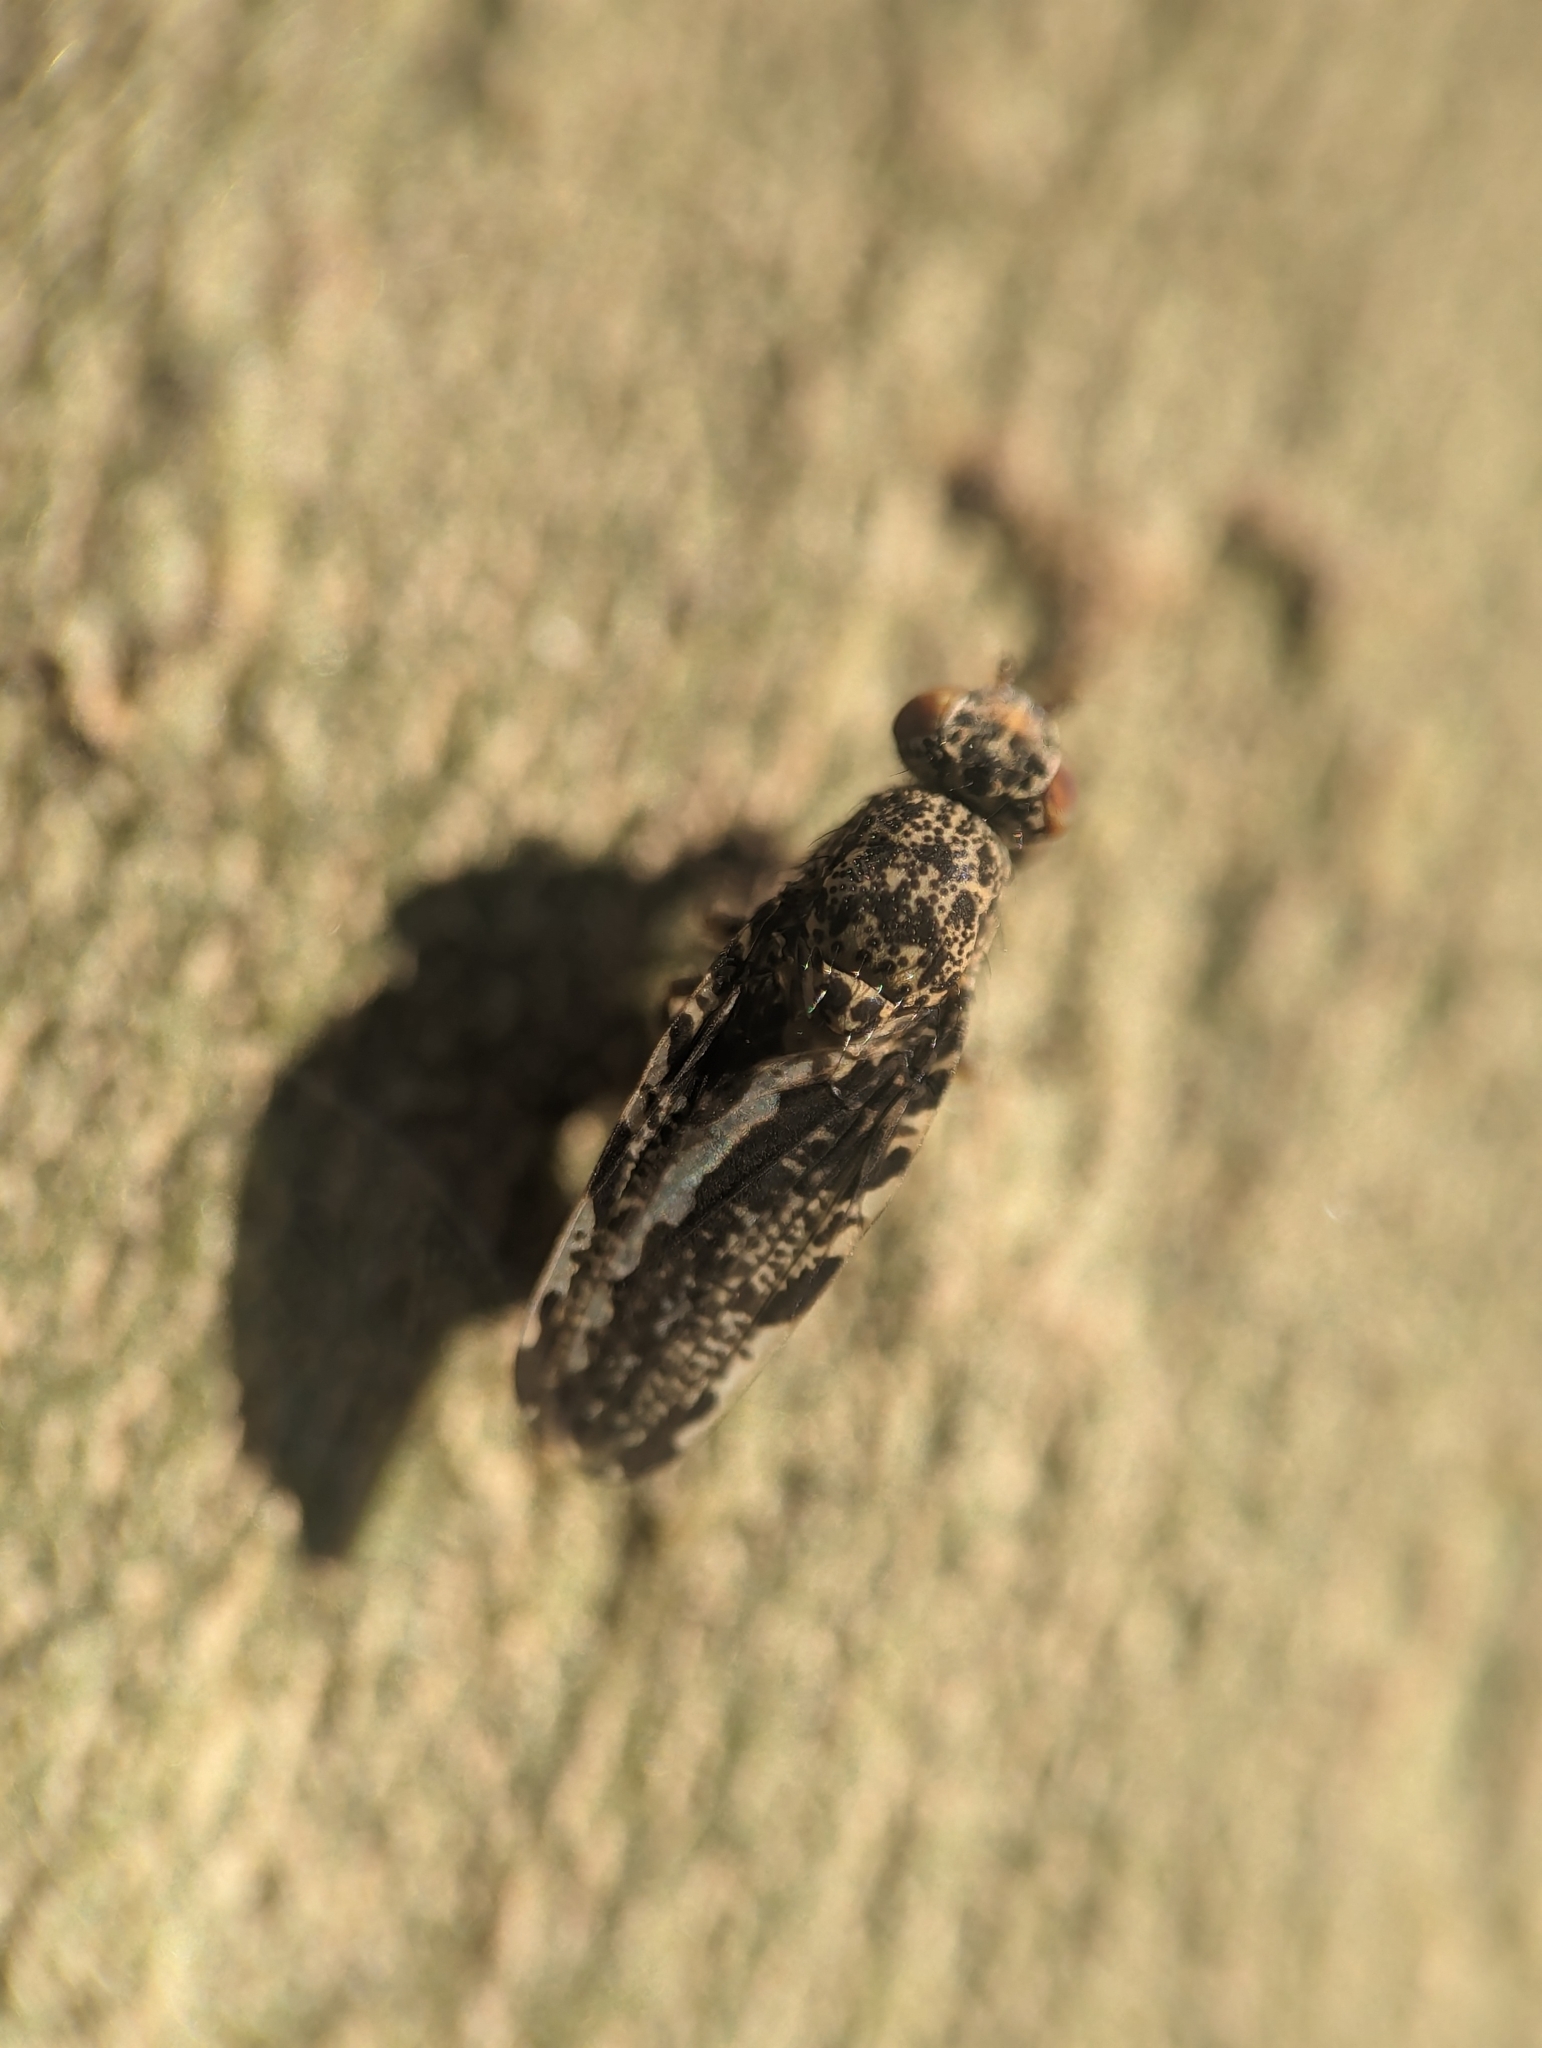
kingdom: Animalia
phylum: Arthropoda
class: Insecta
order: Diptera
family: Ulidiidae
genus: Callopistromyia
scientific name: Callopistromyia strigula
